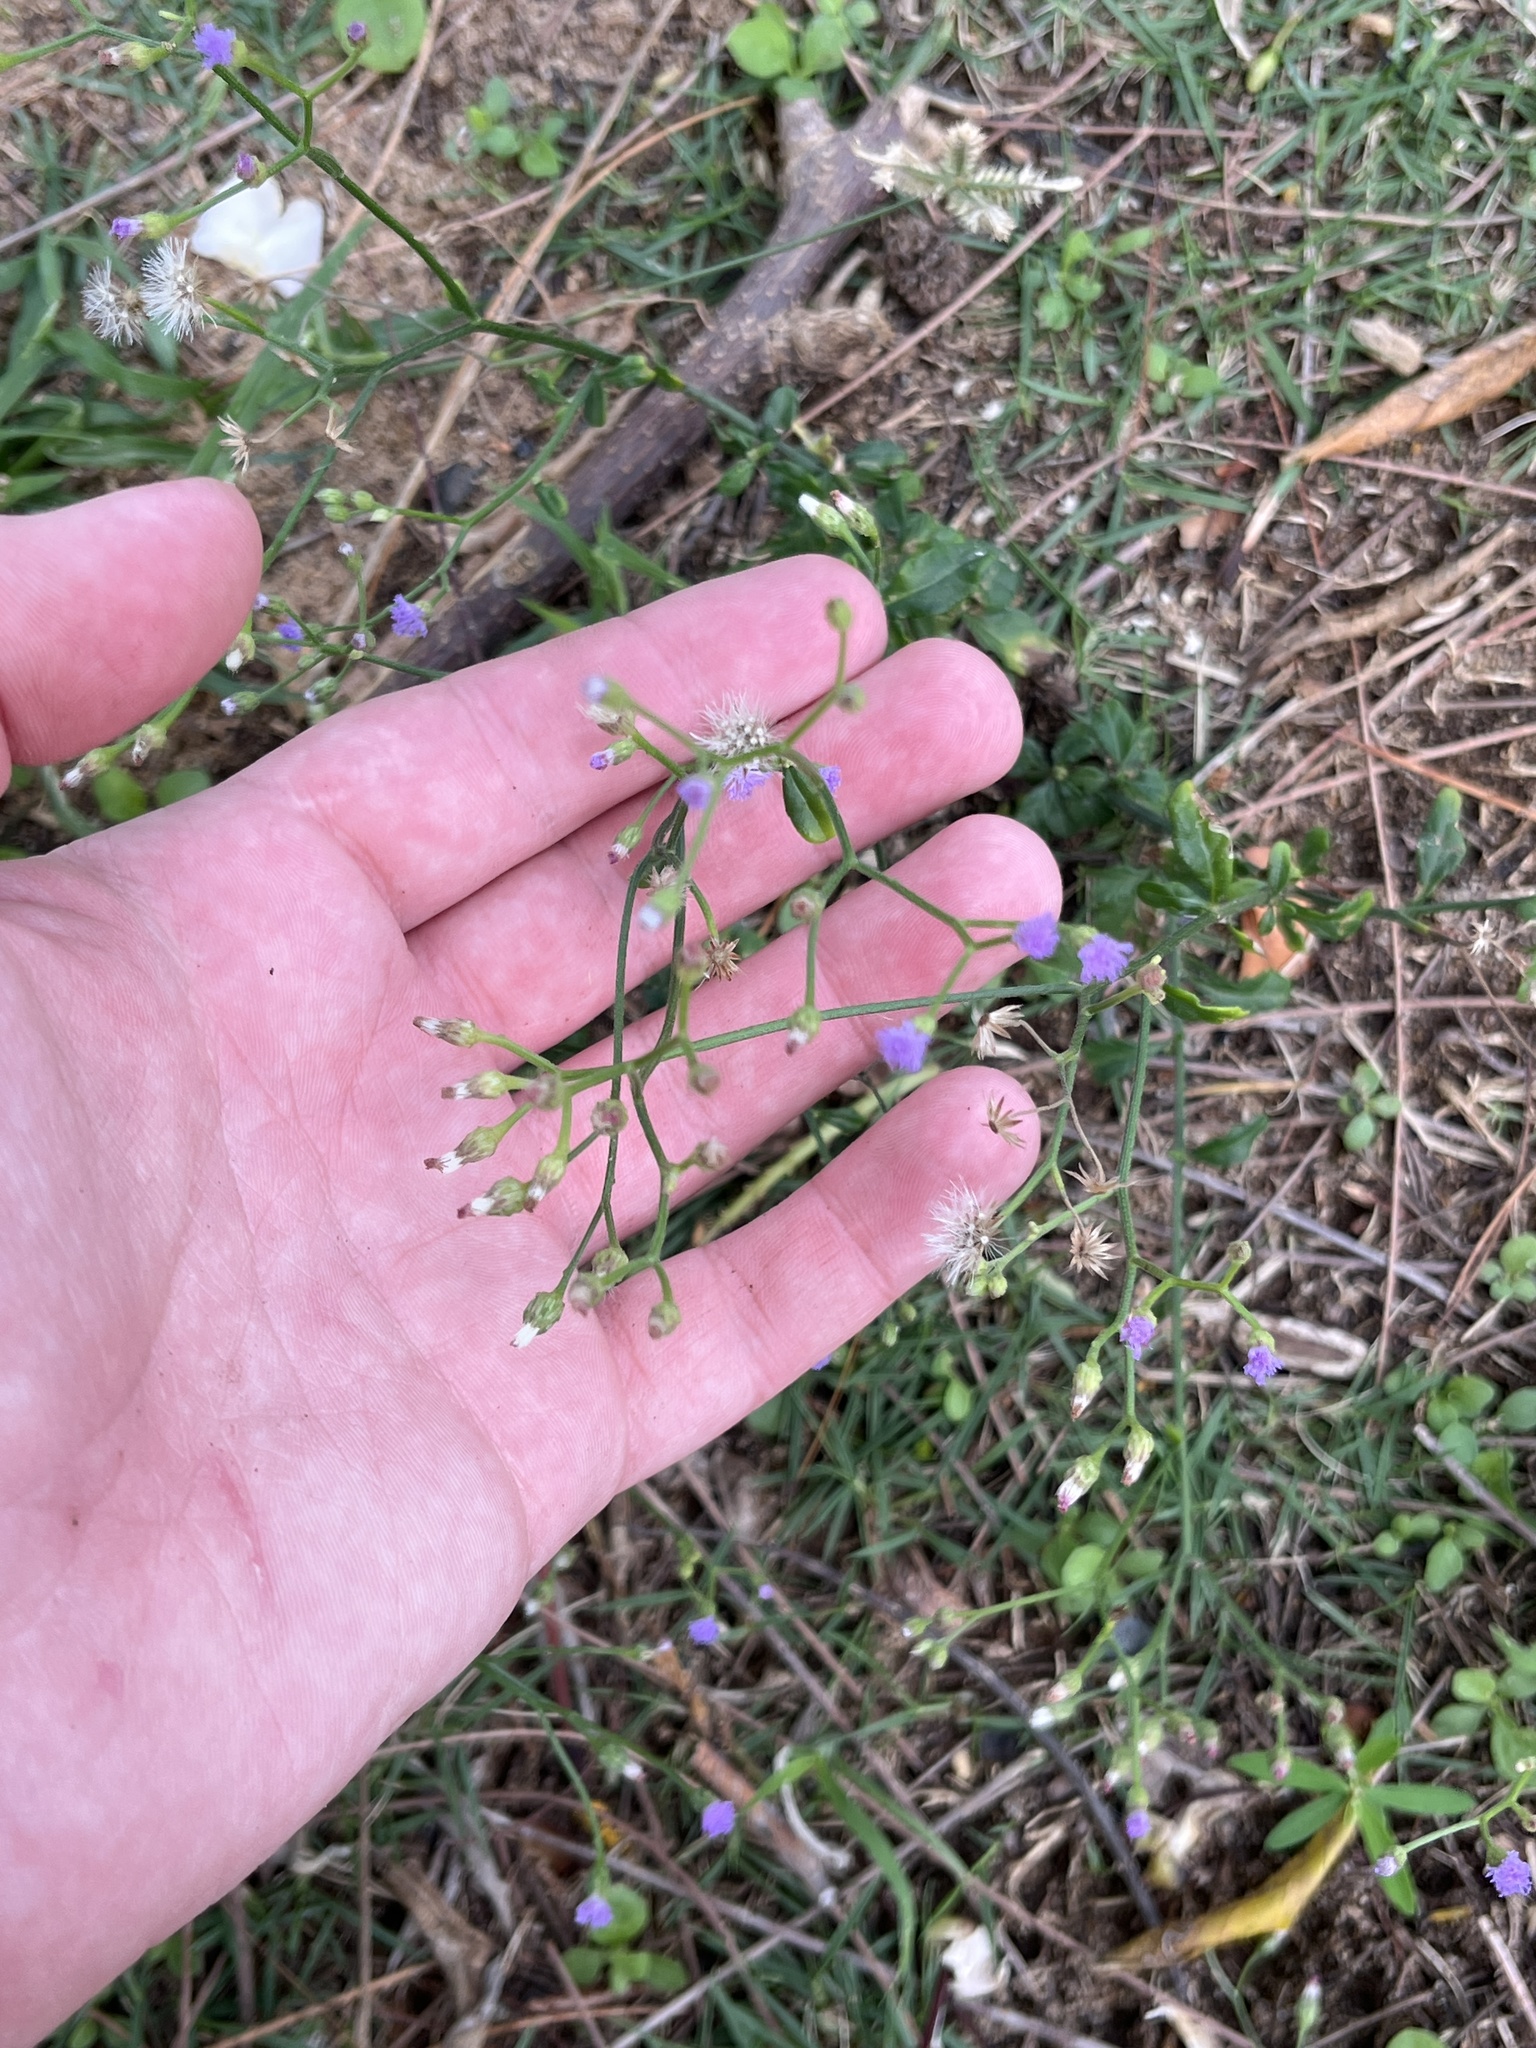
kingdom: Plantae
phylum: Tracheophyta
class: Magnoliopsida
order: Asterales
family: Asteraceae
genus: Cyanthillium
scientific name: Cyanthillium cinereum
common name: Little ironweed
